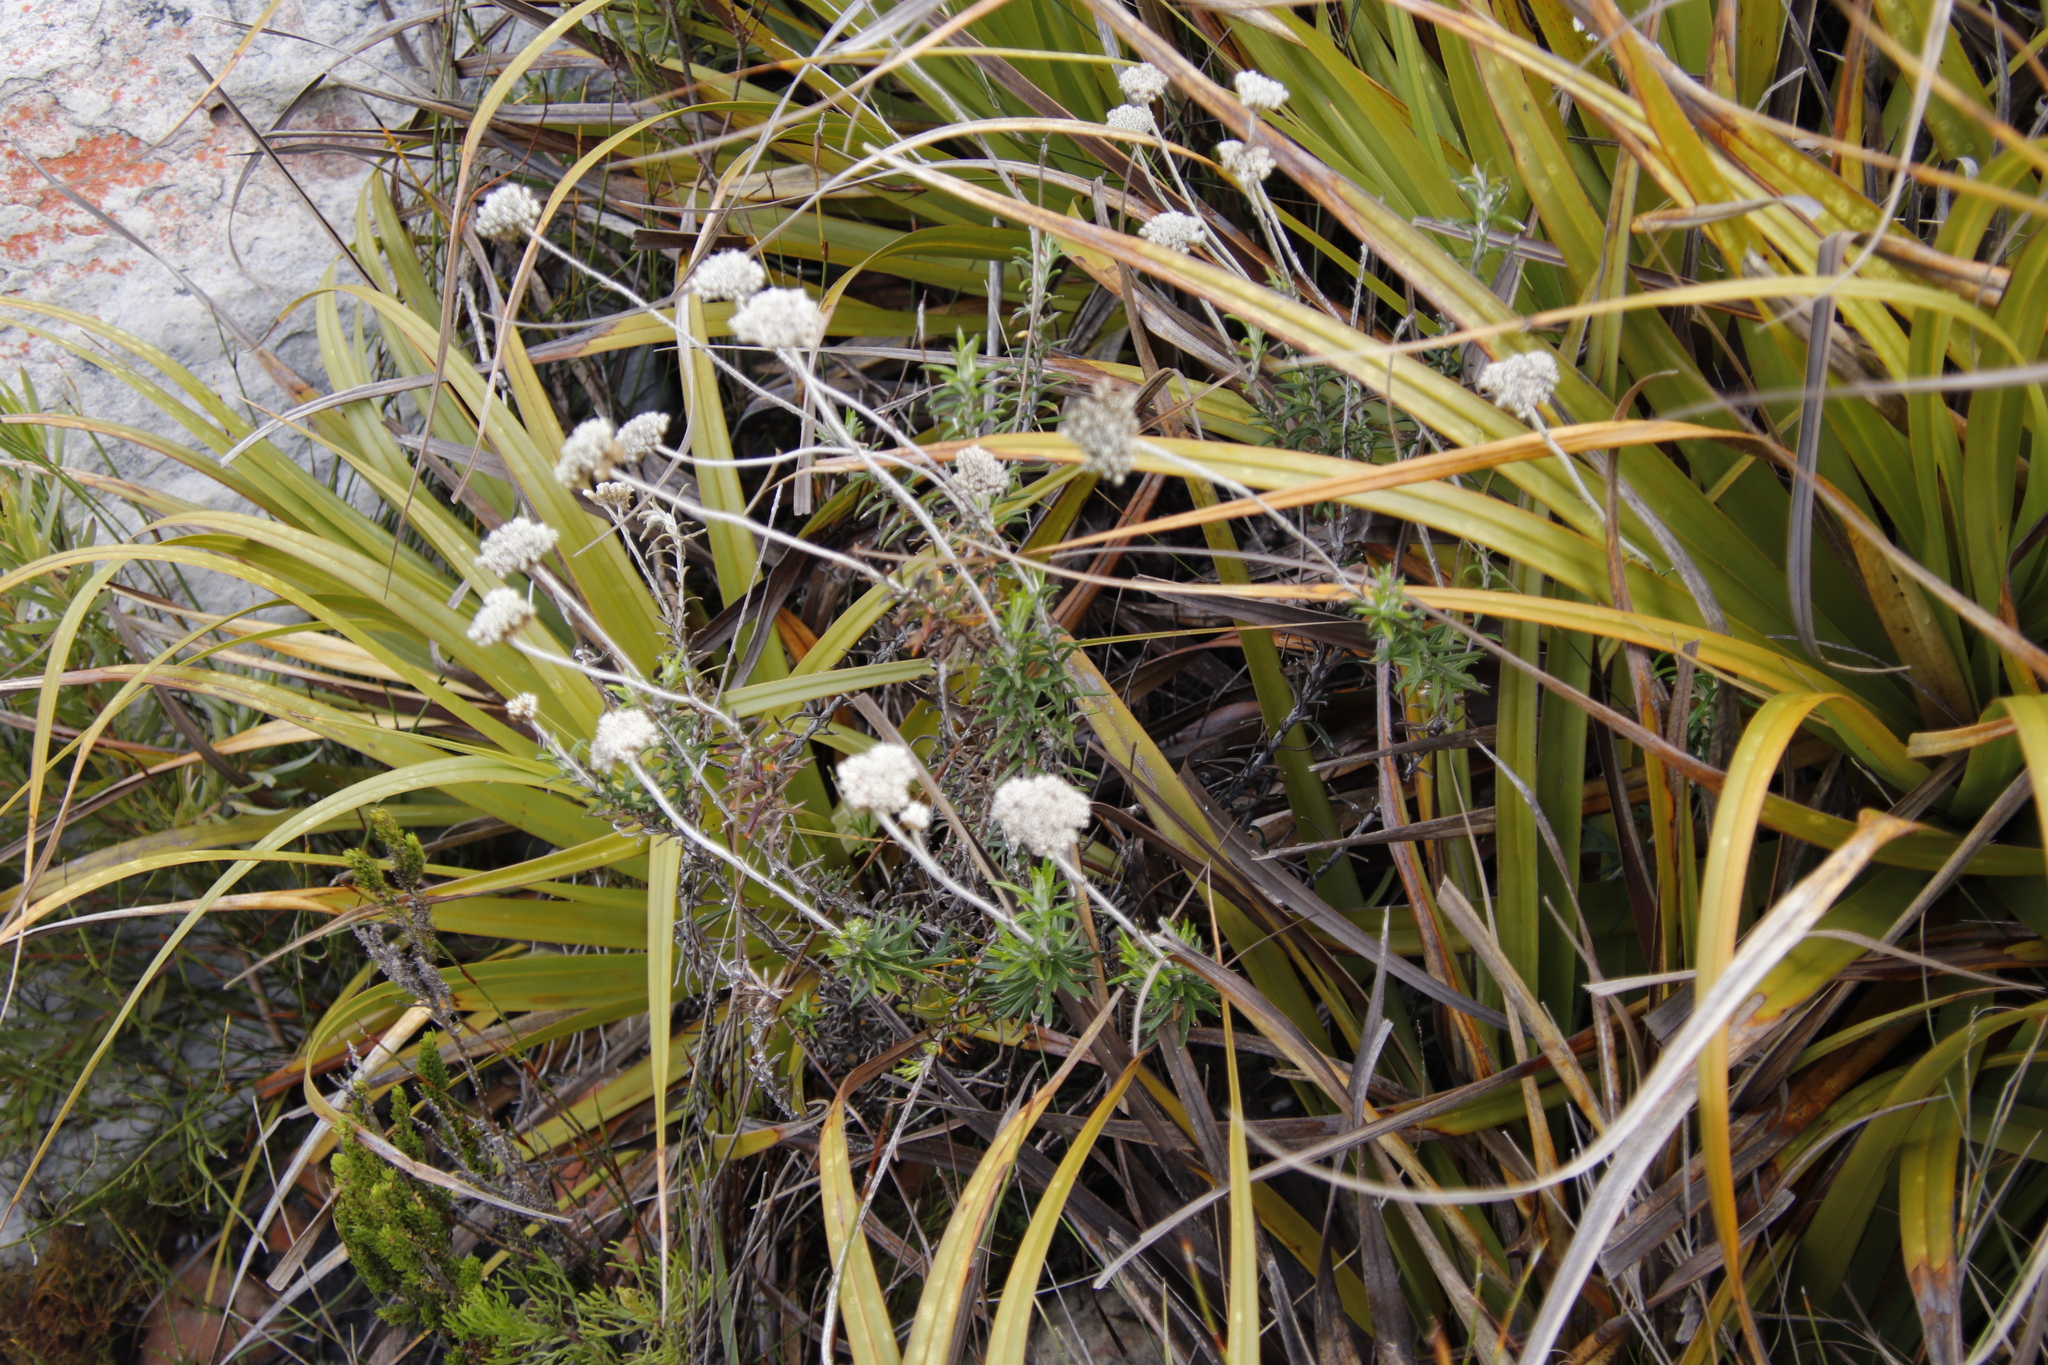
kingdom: Plantae
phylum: Tracheophyta
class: Magnoliopsida
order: Asterales
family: Asteraceae
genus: Anaxeton
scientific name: Anaxeton arborescens
